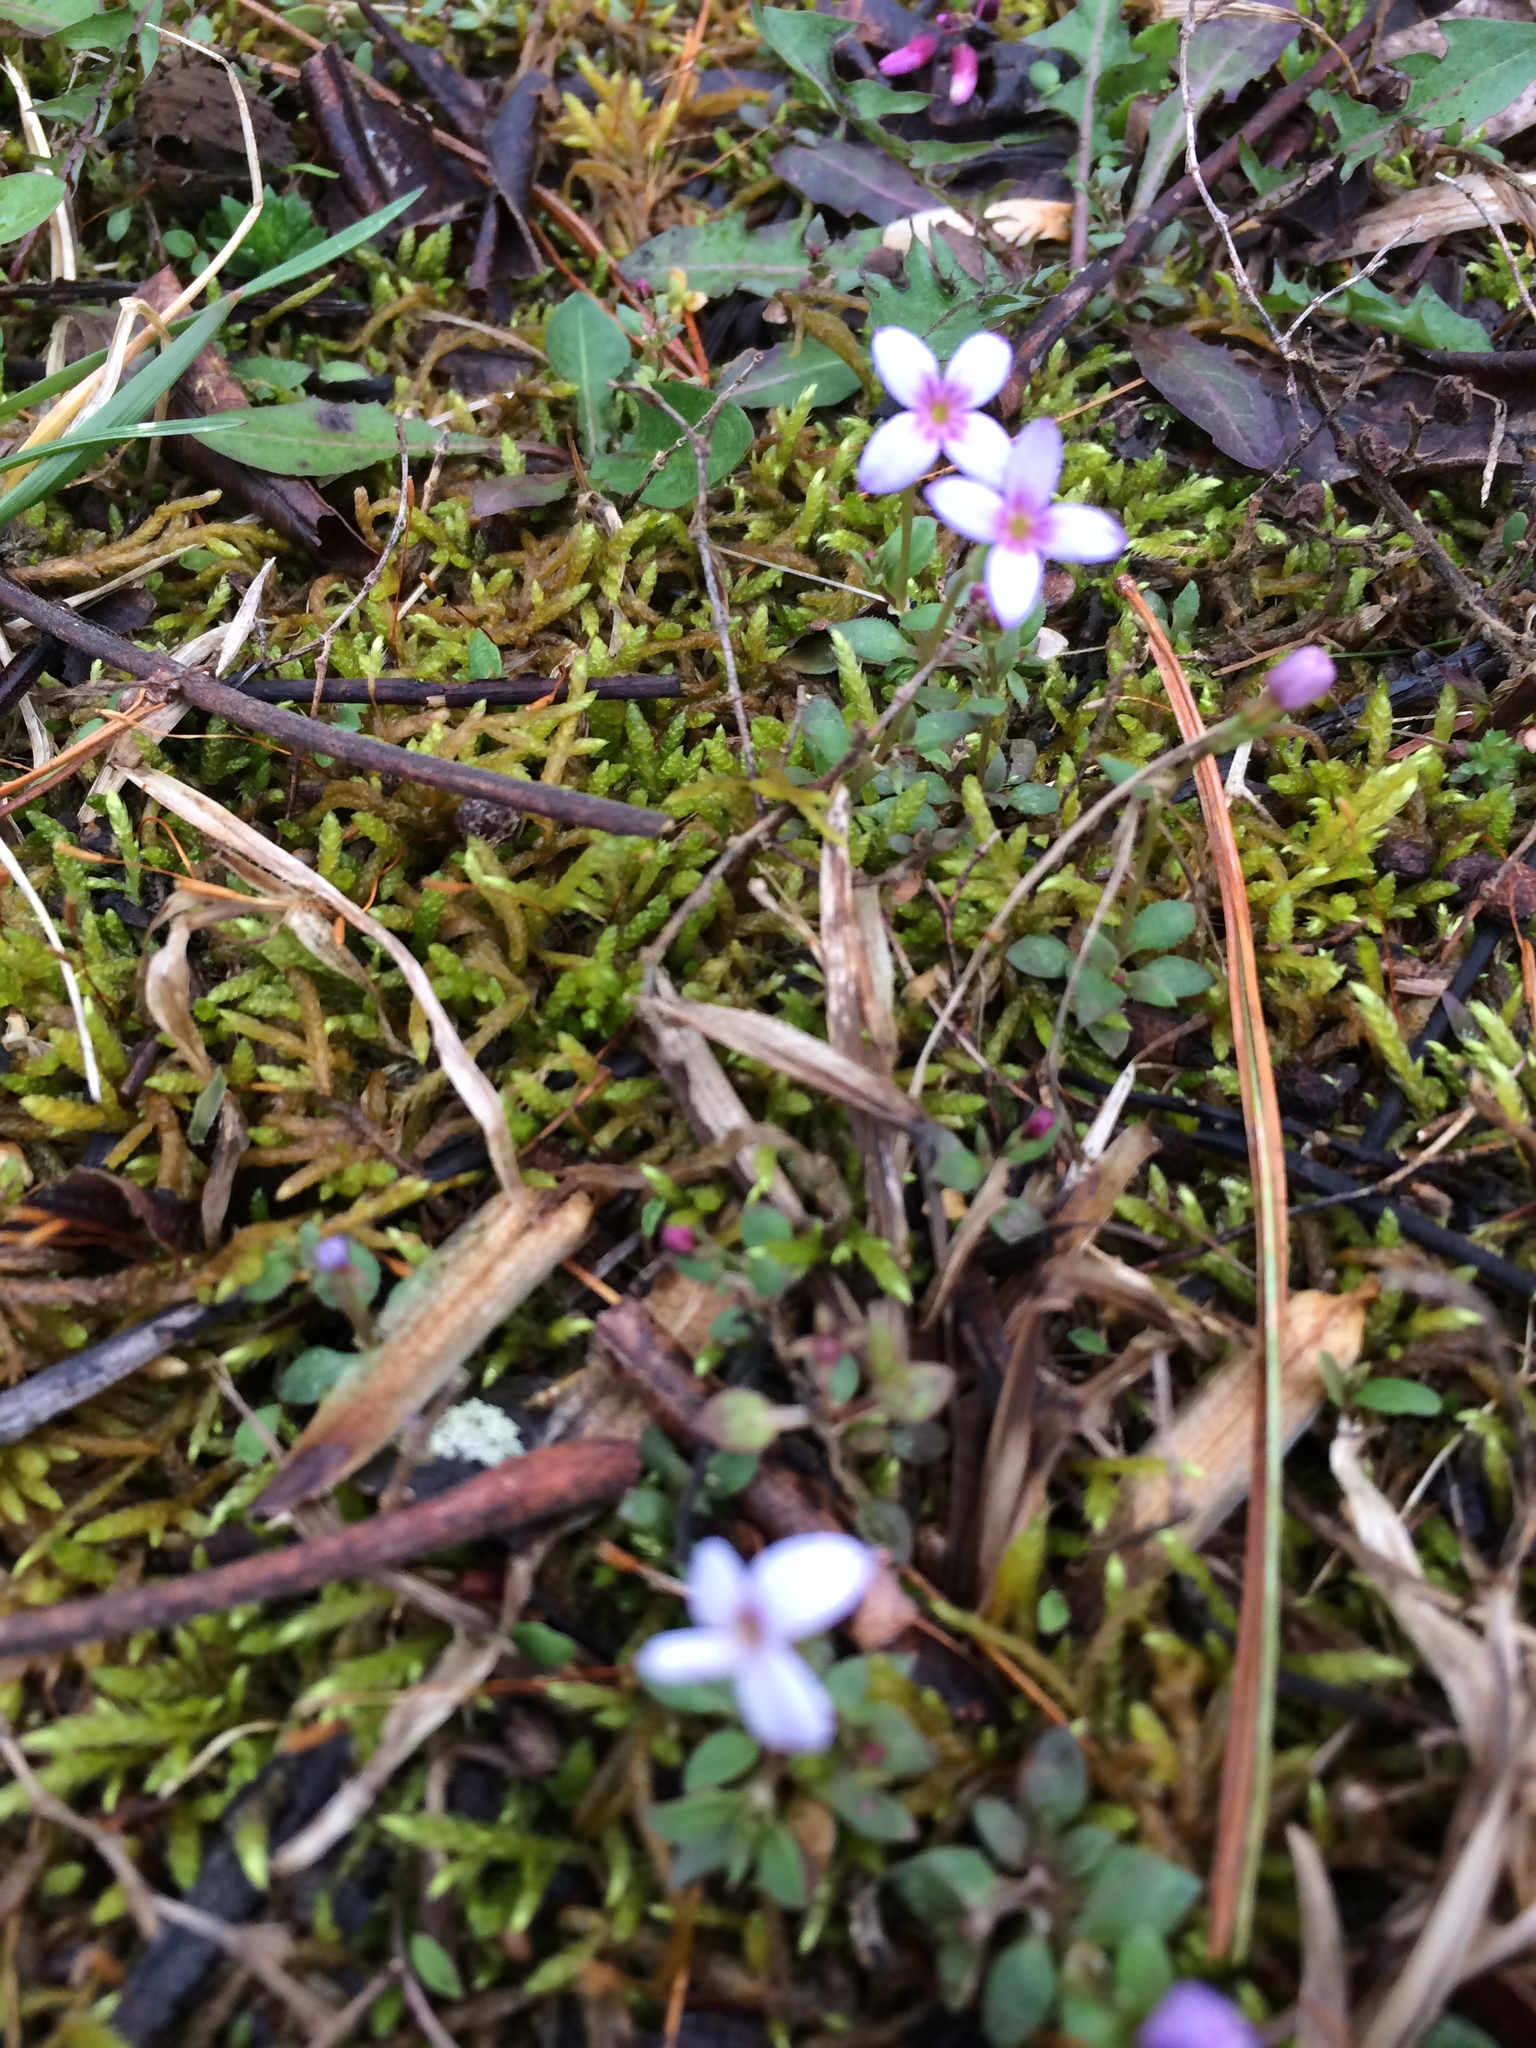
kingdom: Plantae
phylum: Tracheophyta
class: Magnoliopsida
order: Gentianales
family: Rubiaceae
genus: Houstonia
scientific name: Houstonia pusilla
